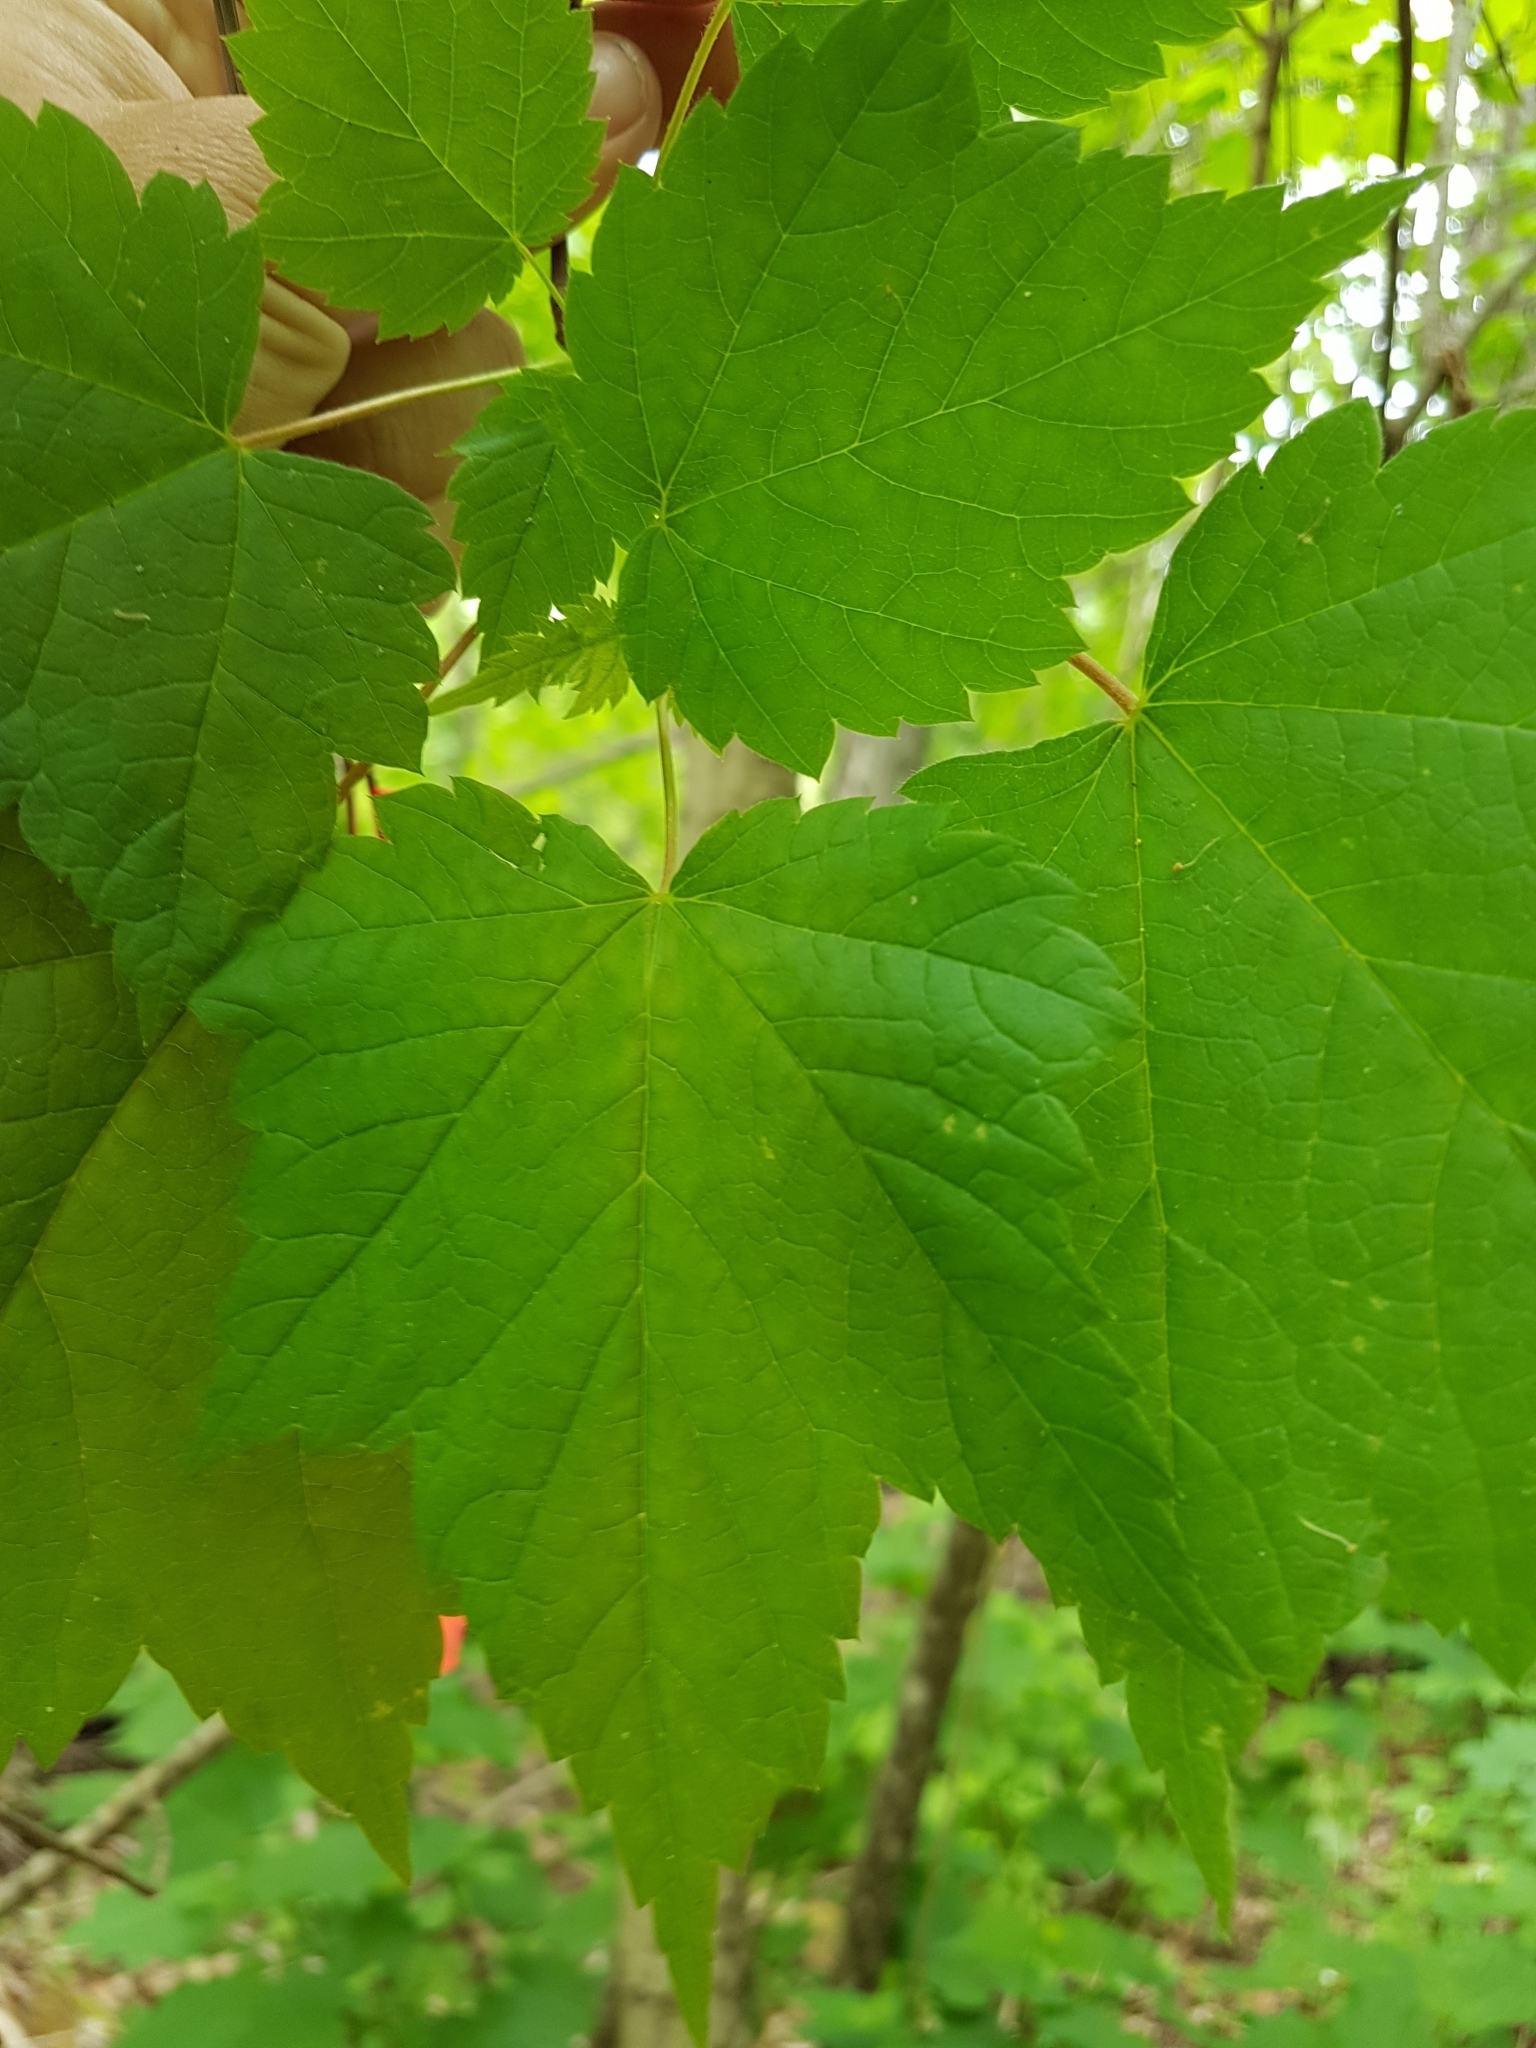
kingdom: Plantae
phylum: Tracheophyta
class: Magnoliopsida
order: Sapindales
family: Sapindaceae
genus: Acer
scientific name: Acer spicatum
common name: Mountain maple
